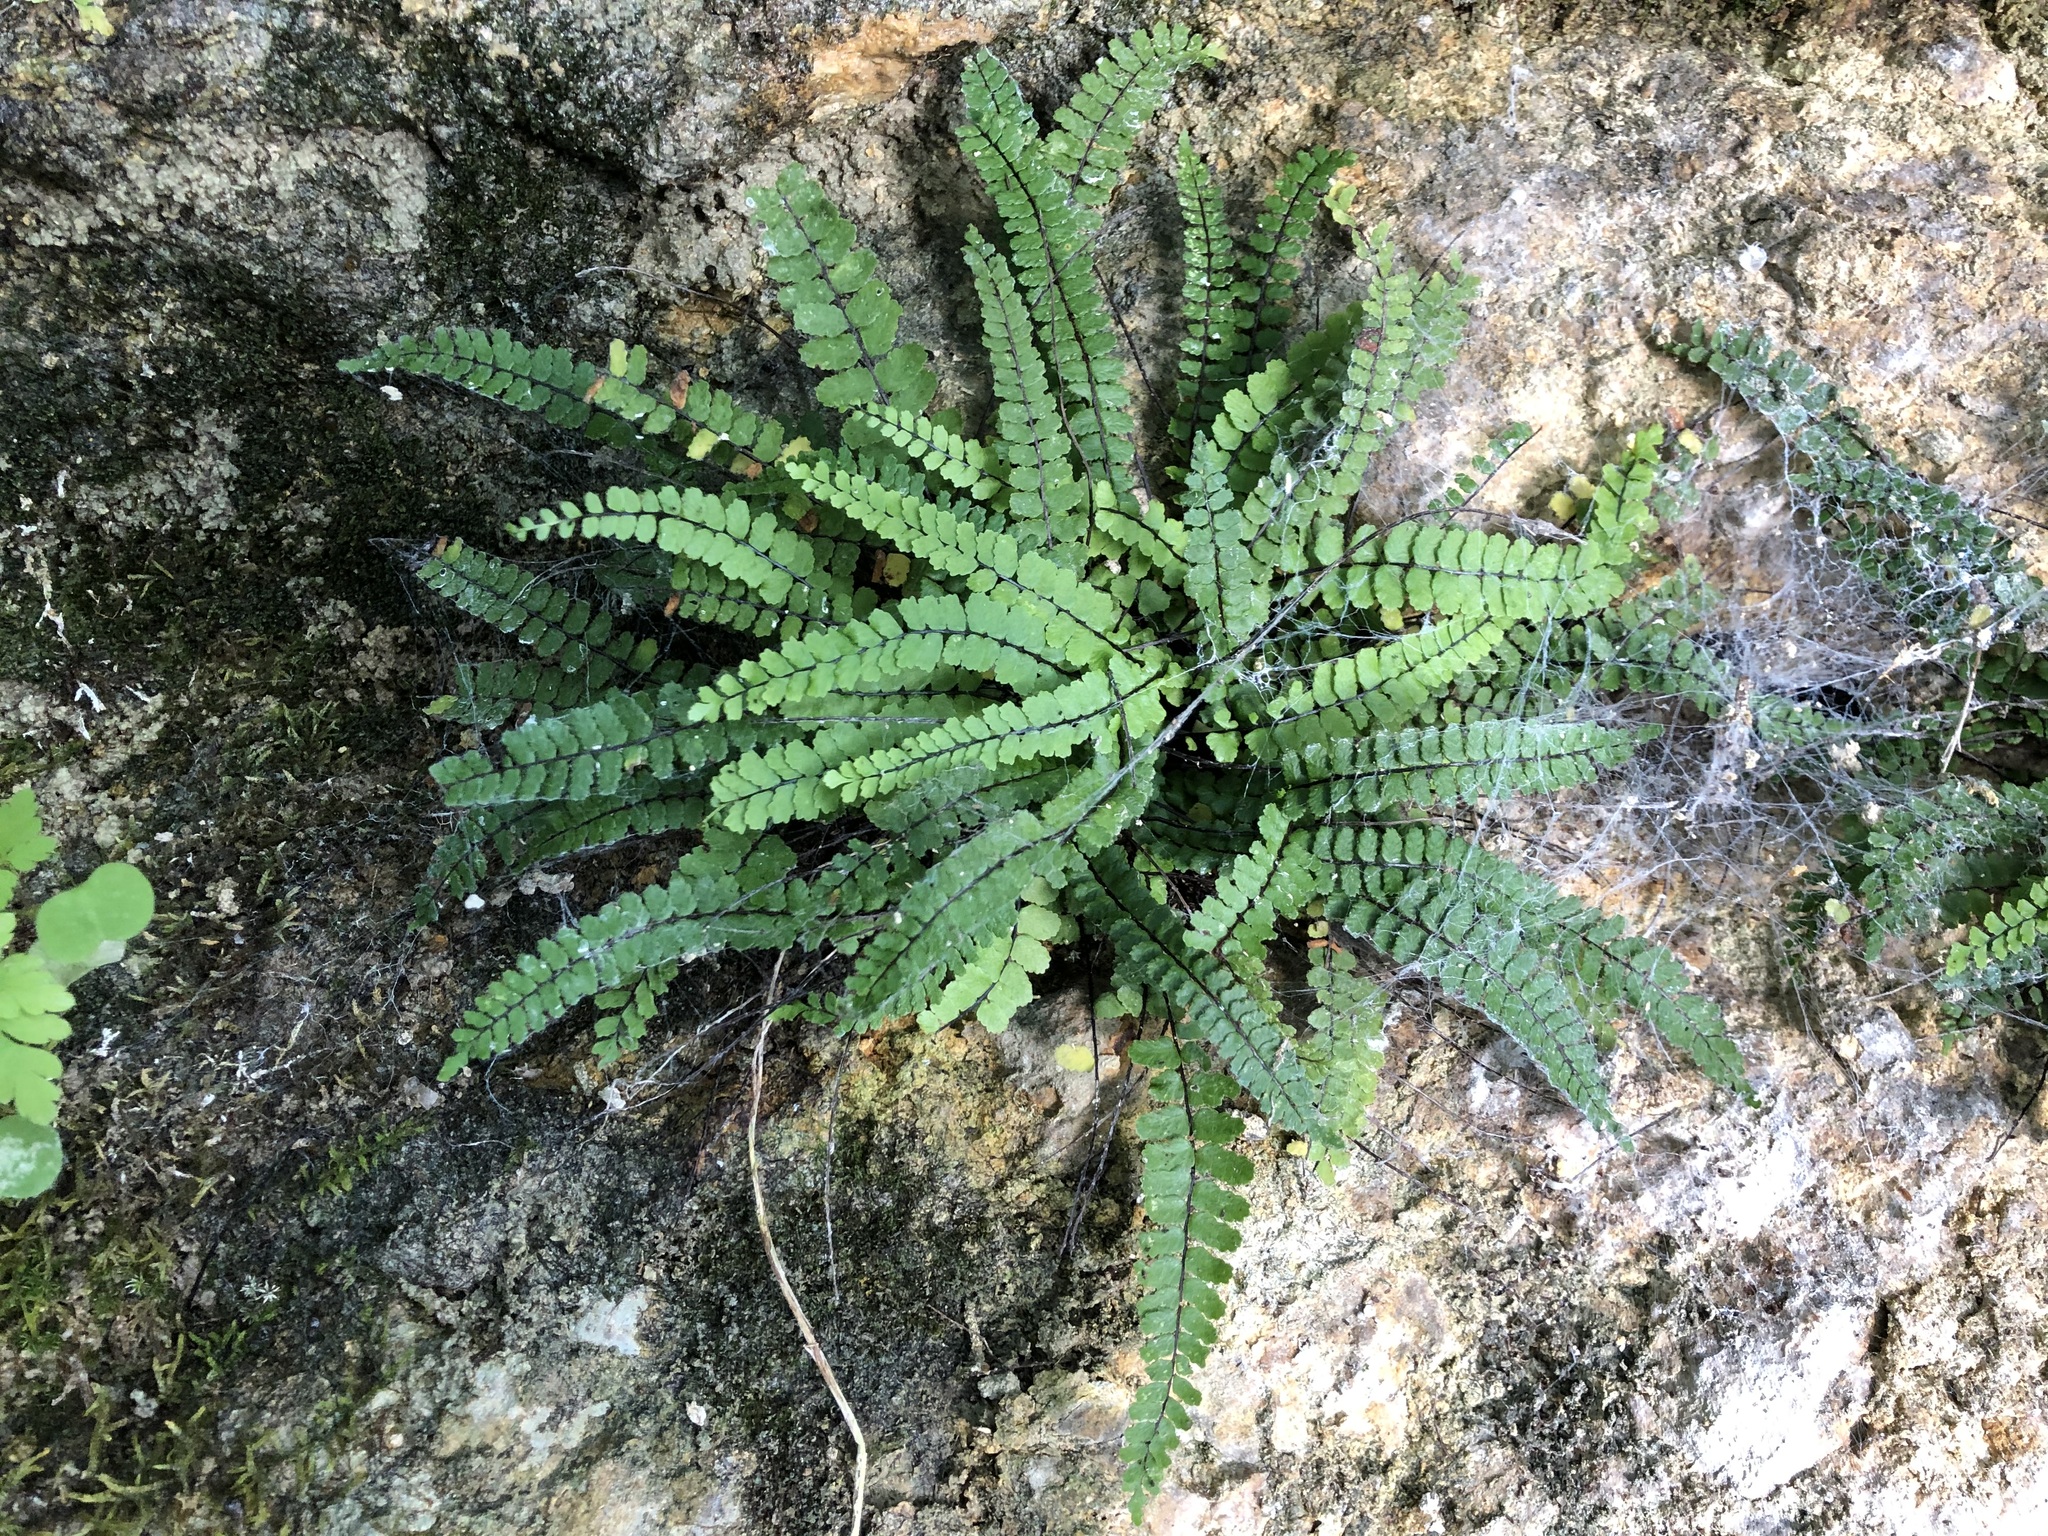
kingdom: Plantae
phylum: Tracheophyta
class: Polypodiopsida
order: Polypodiales
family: Aspleniaceae
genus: Asplenium
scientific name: Asplenium trichomanes
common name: Maidenhair spleenwort
